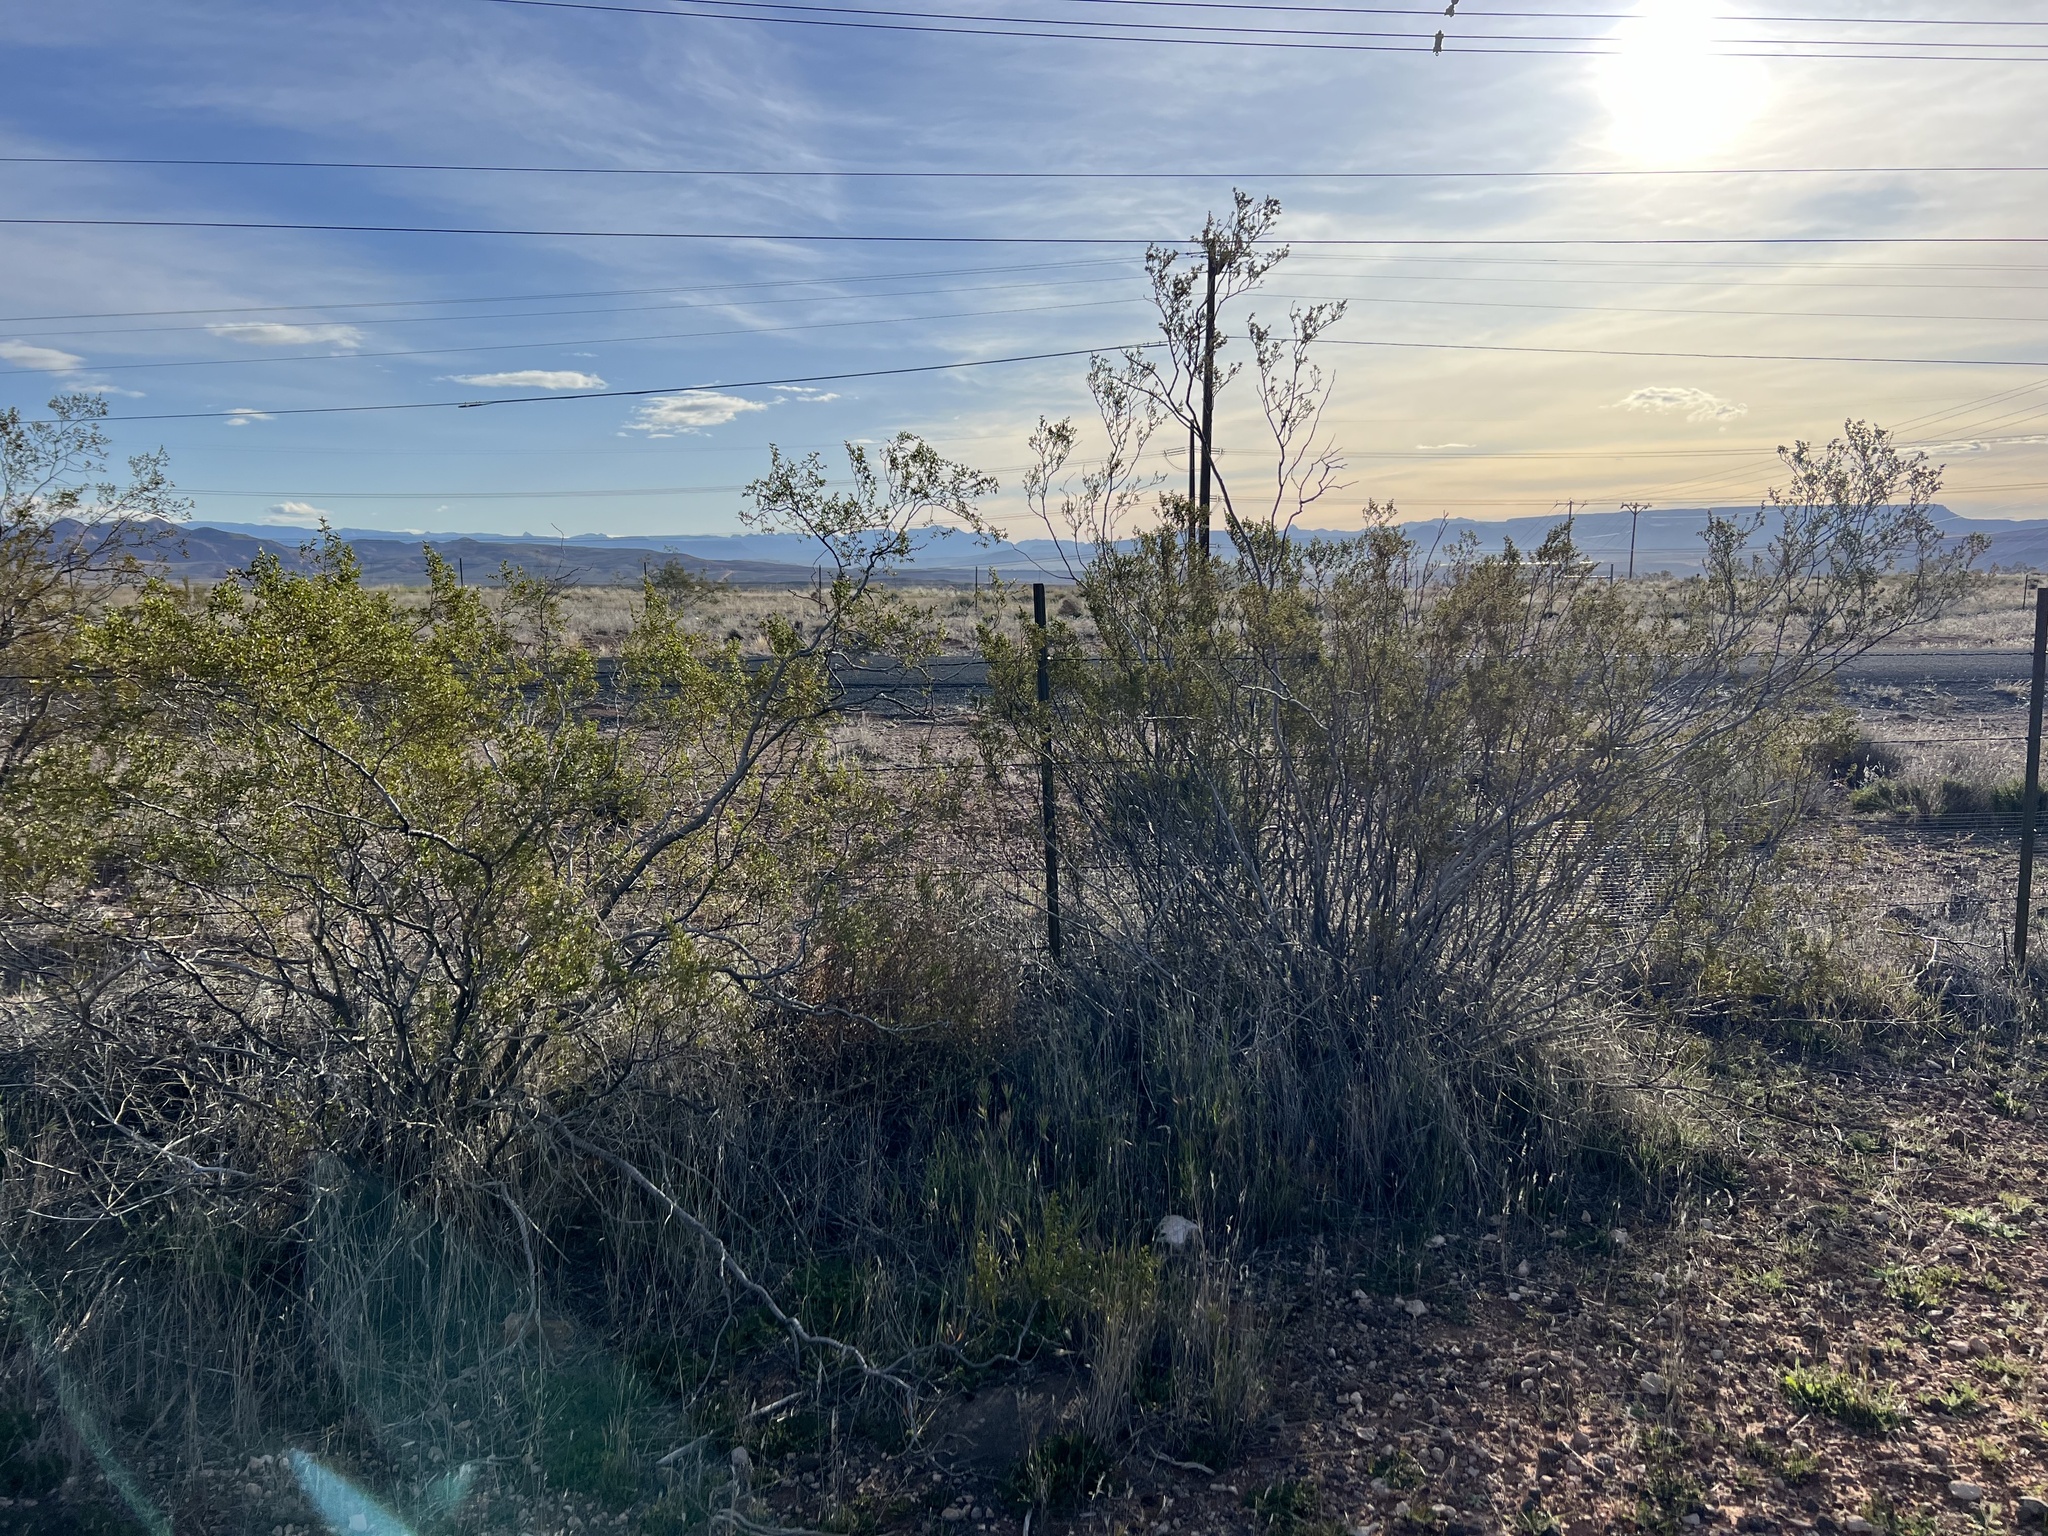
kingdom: Plantae
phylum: Tracheophyta
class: Magnoliopsida
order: Zygophyllales
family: Zygophyllaceae
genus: Larrea
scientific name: Larrea tridentata
